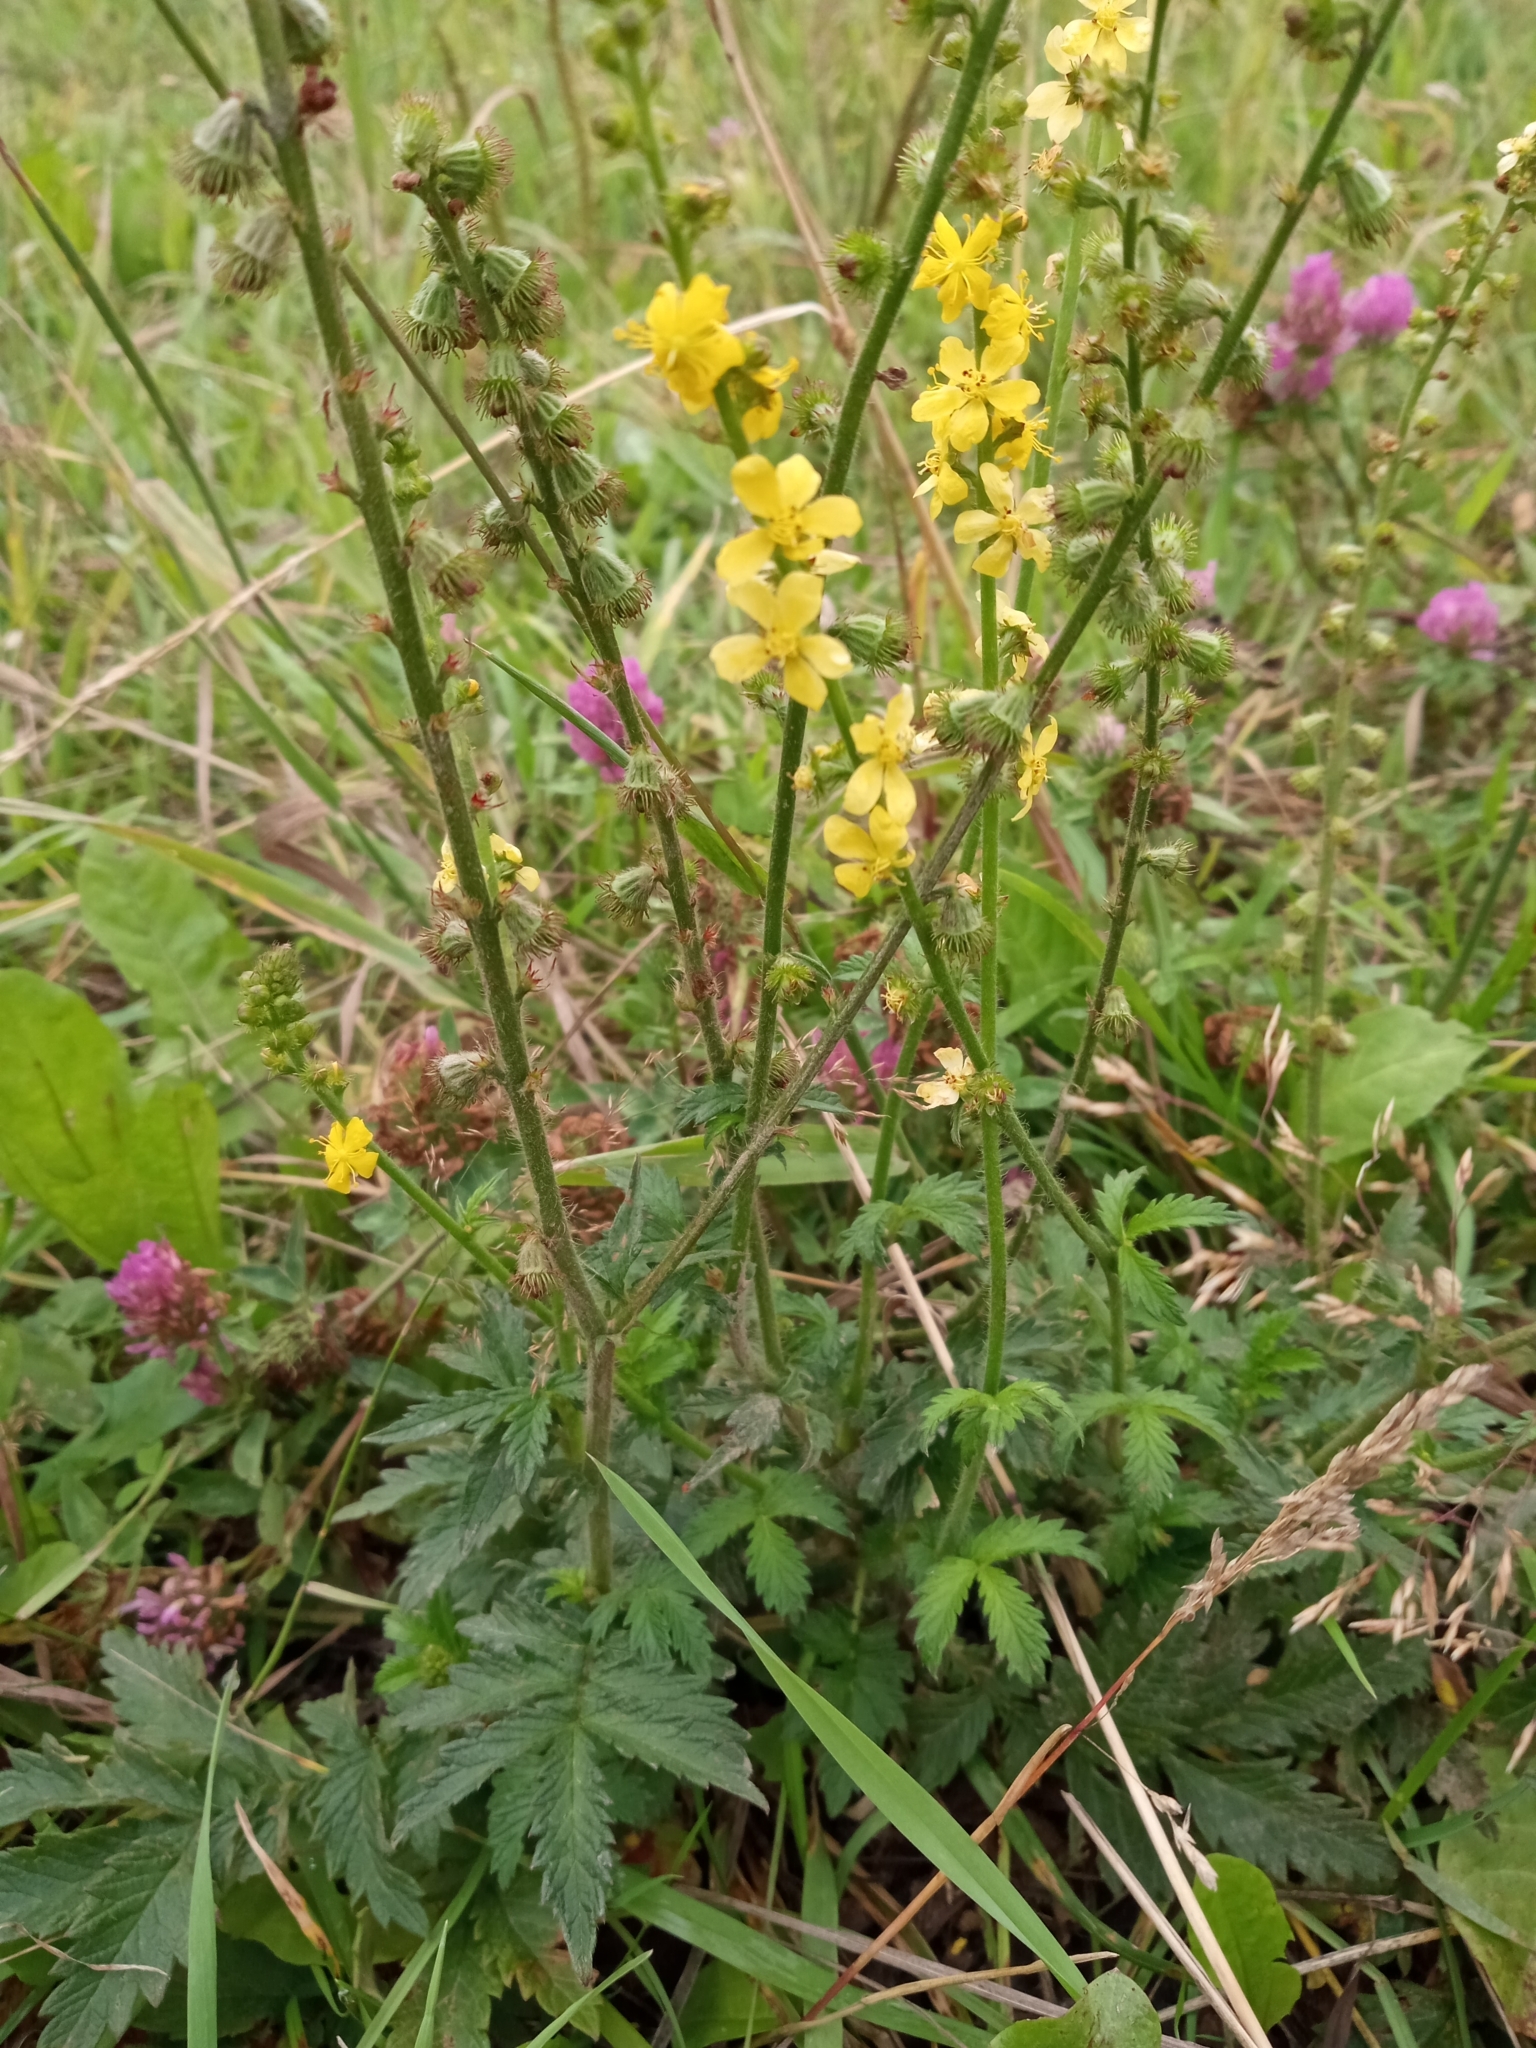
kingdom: Plantae
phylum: Tracheophyta
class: Magnoliopsida
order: Rosales
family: Rosaceae
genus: Agrimonia
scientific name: Agrimonia eupatoria
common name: Agrimony
